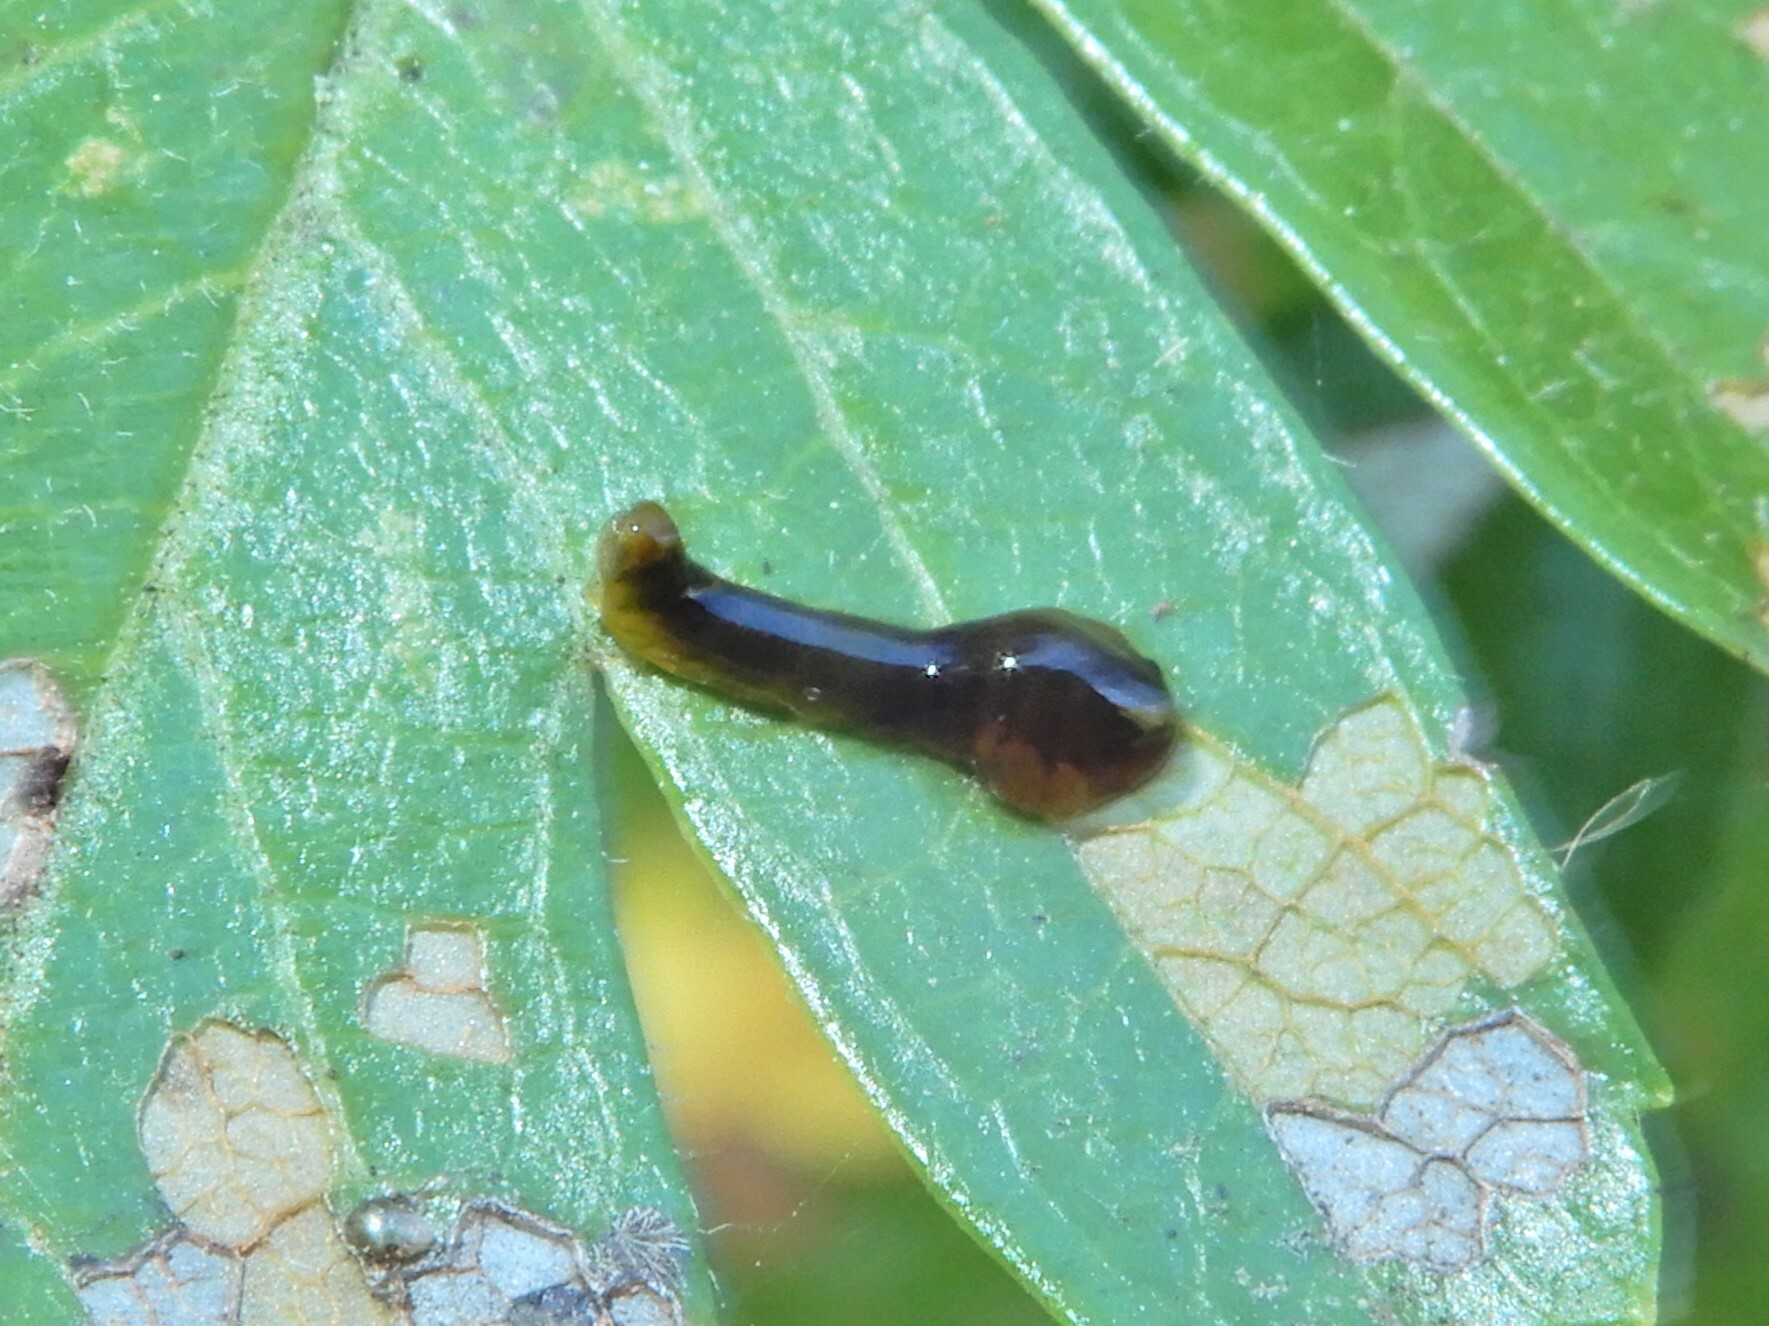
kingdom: Animalia
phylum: Arthropoda
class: Insecta
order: Hymenoptera
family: Tenthredinidae
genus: Caliroa
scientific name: Caliroa cerasi
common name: Pear sawfly
